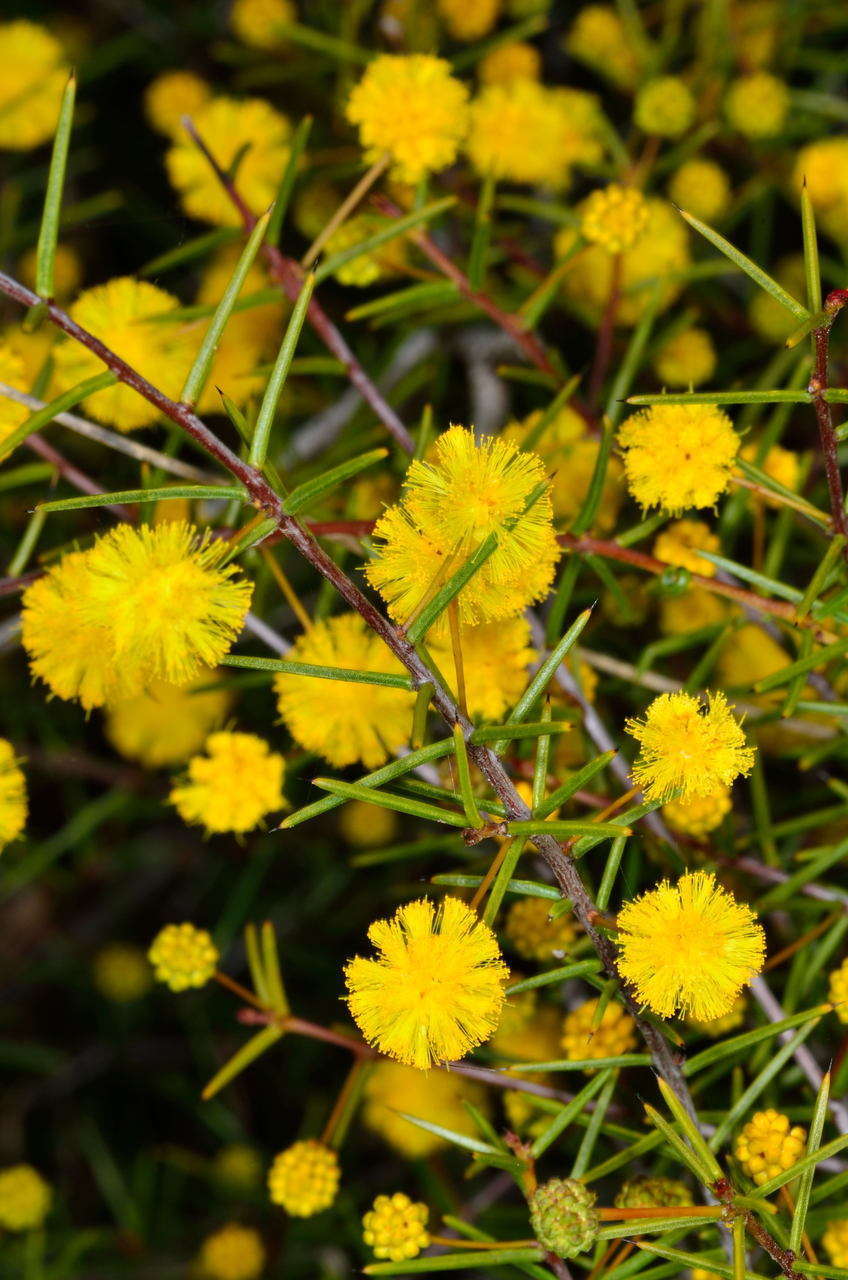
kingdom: Plantae
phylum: Tracheophyta
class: Magnoliopsida
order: Fabales
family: Fabaceae
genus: Acacia
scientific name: Acacia brownii
